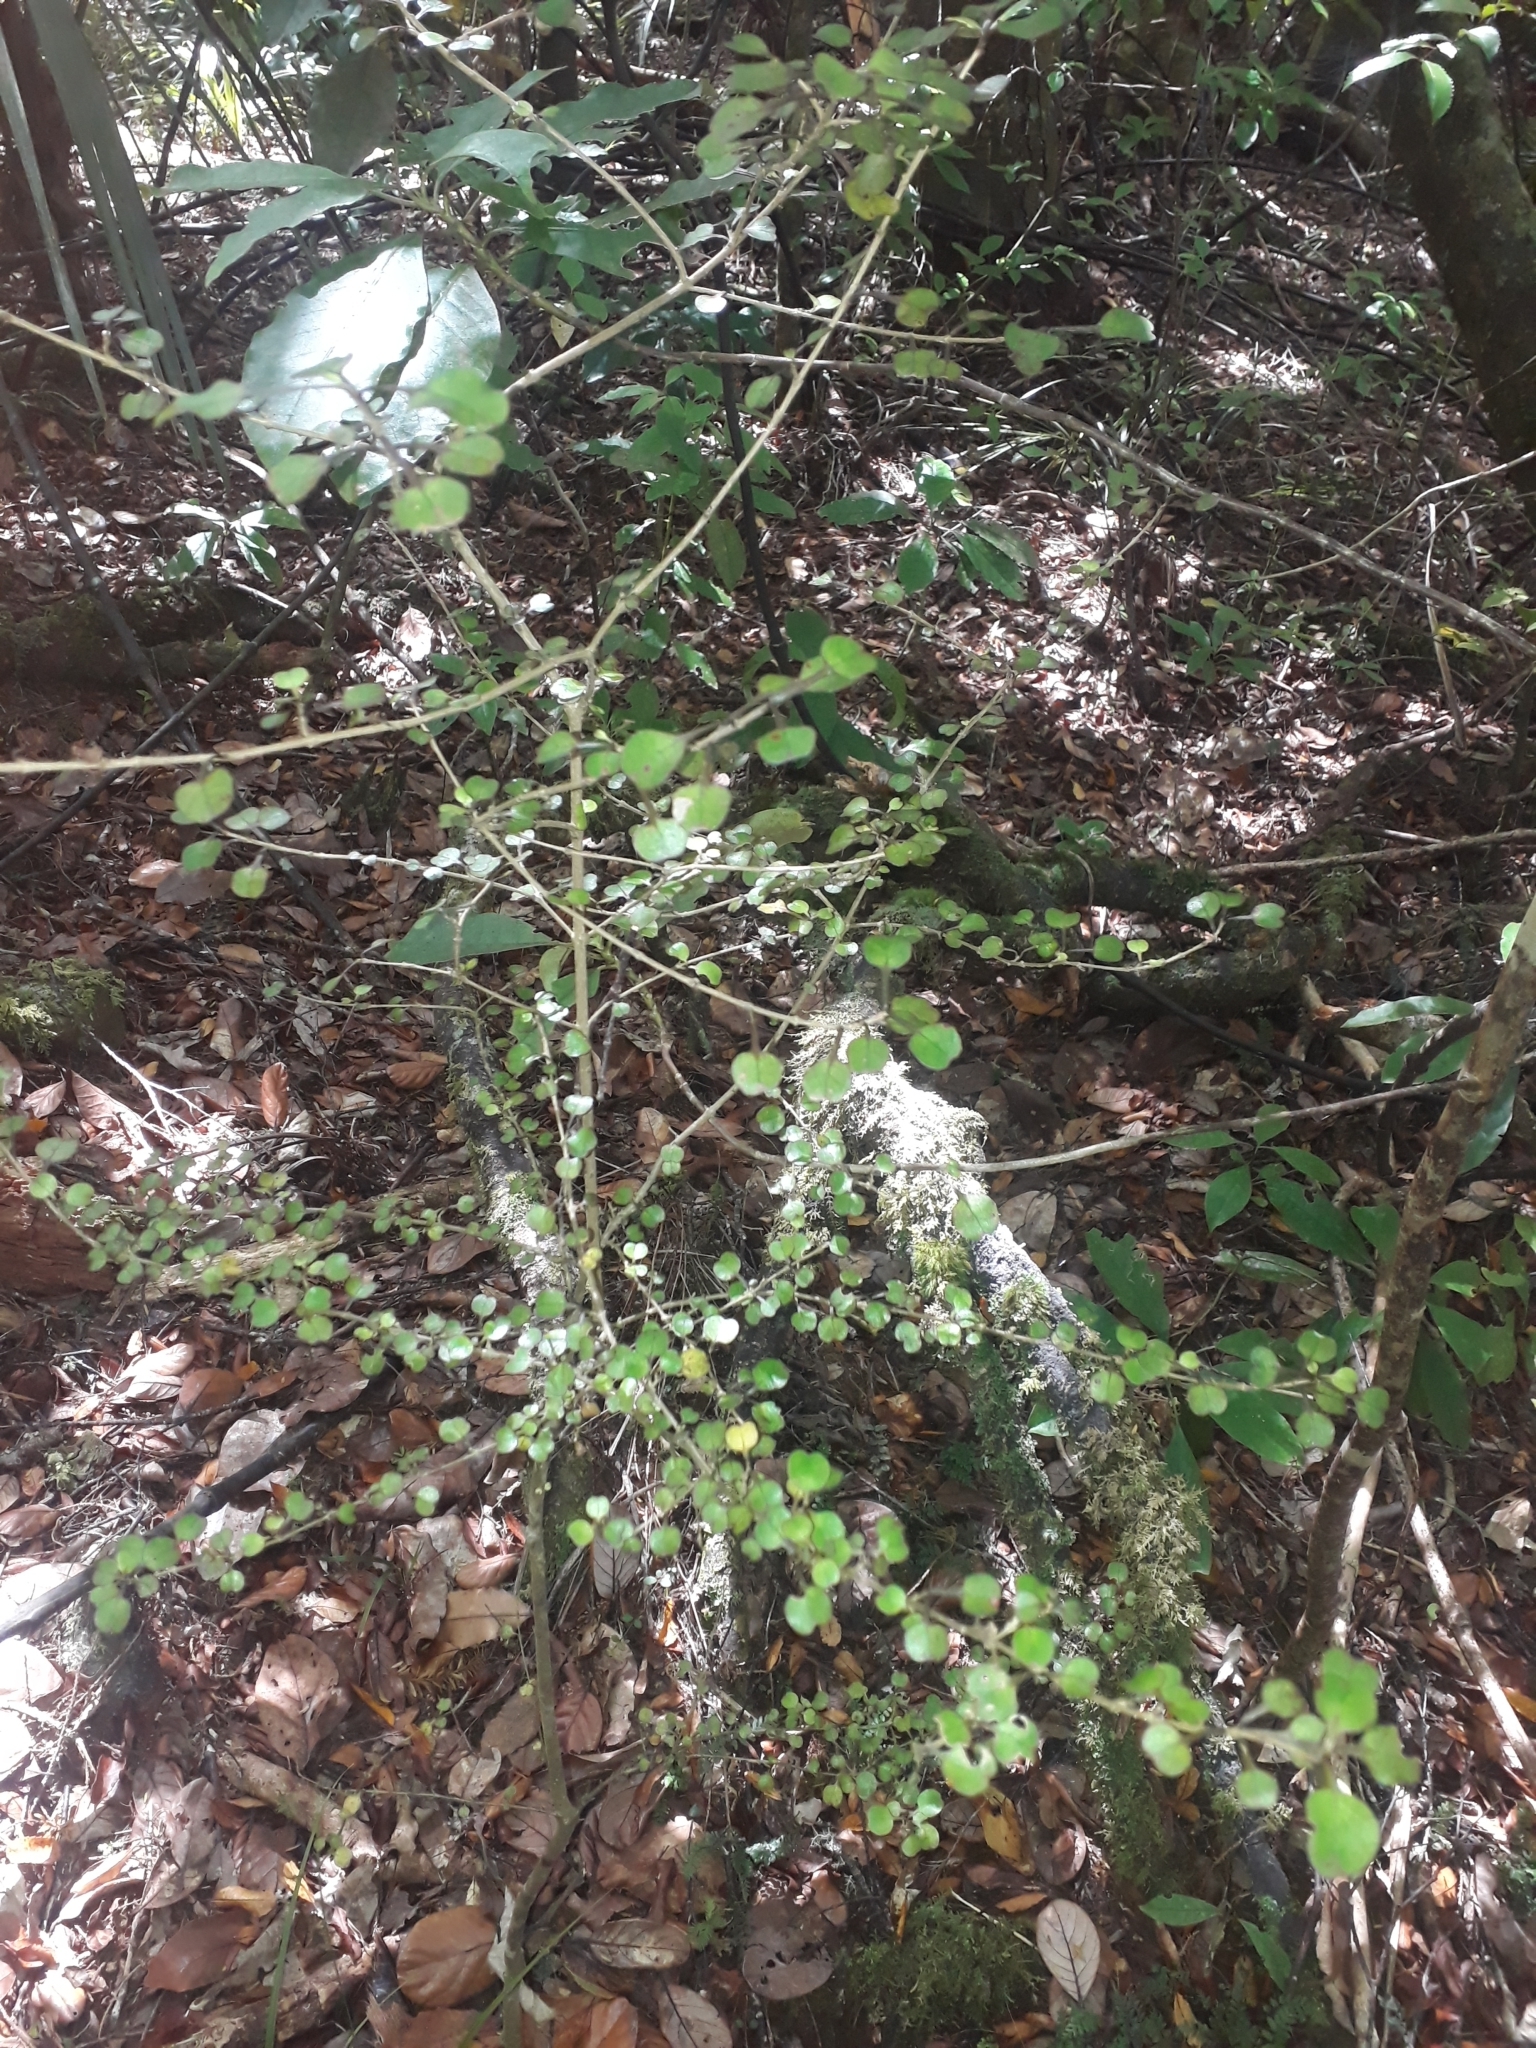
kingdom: Plantae
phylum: Tracheophyta
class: Magnoliopsida
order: Gentianales
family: Rubiaceae
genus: Coprosma
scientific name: Coprosma spathulata
